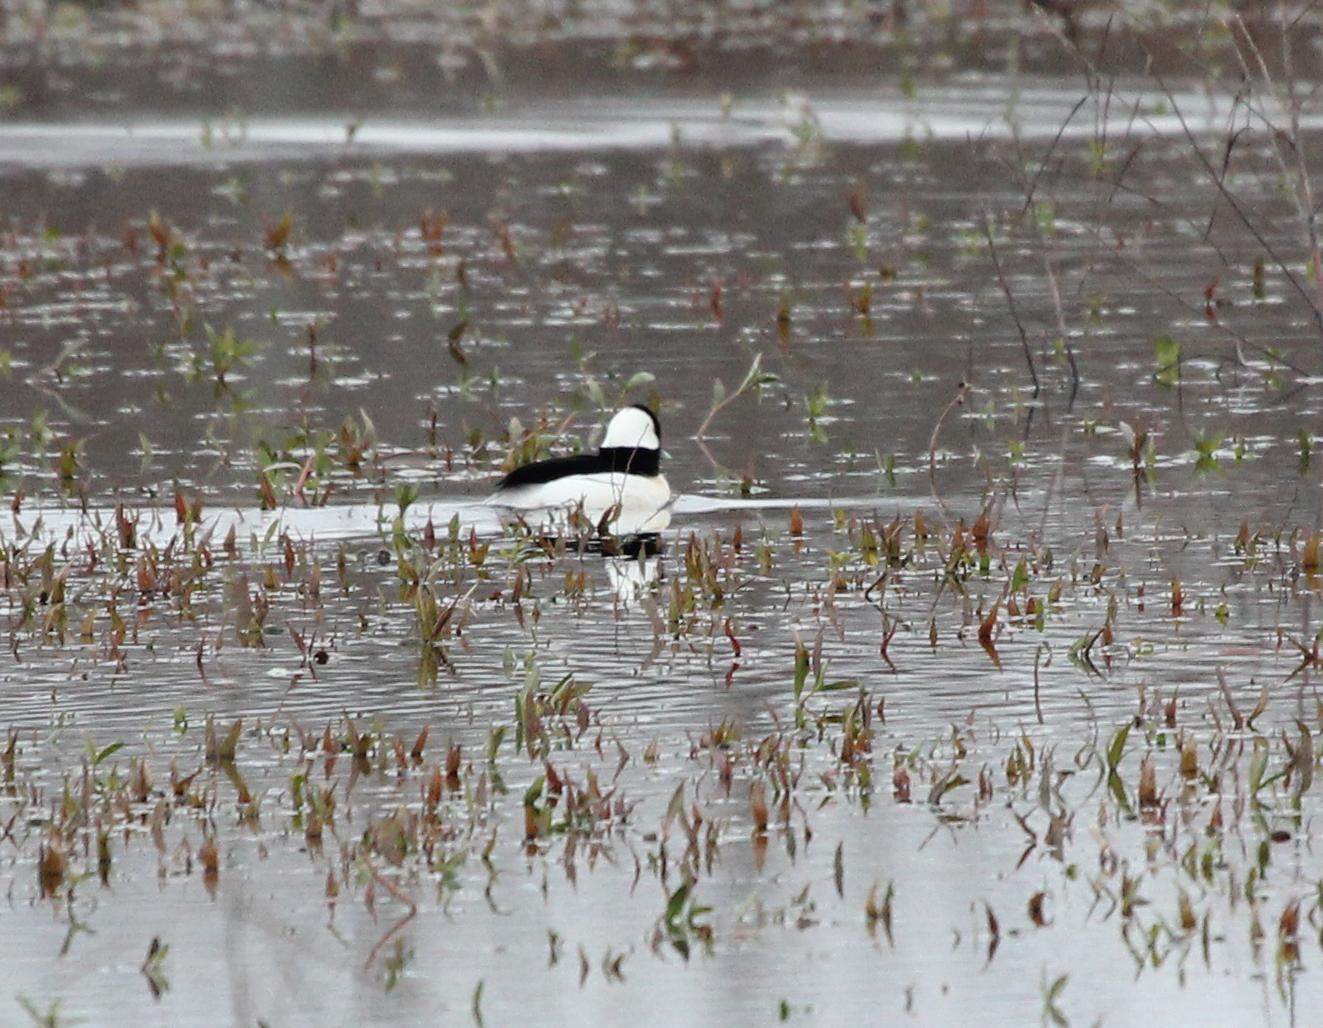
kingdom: Animalia
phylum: Chordata
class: Aves
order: Anseriformes
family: Anatidae
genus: Bucephala
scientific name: Bucephala albeola
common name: Bufflehead
